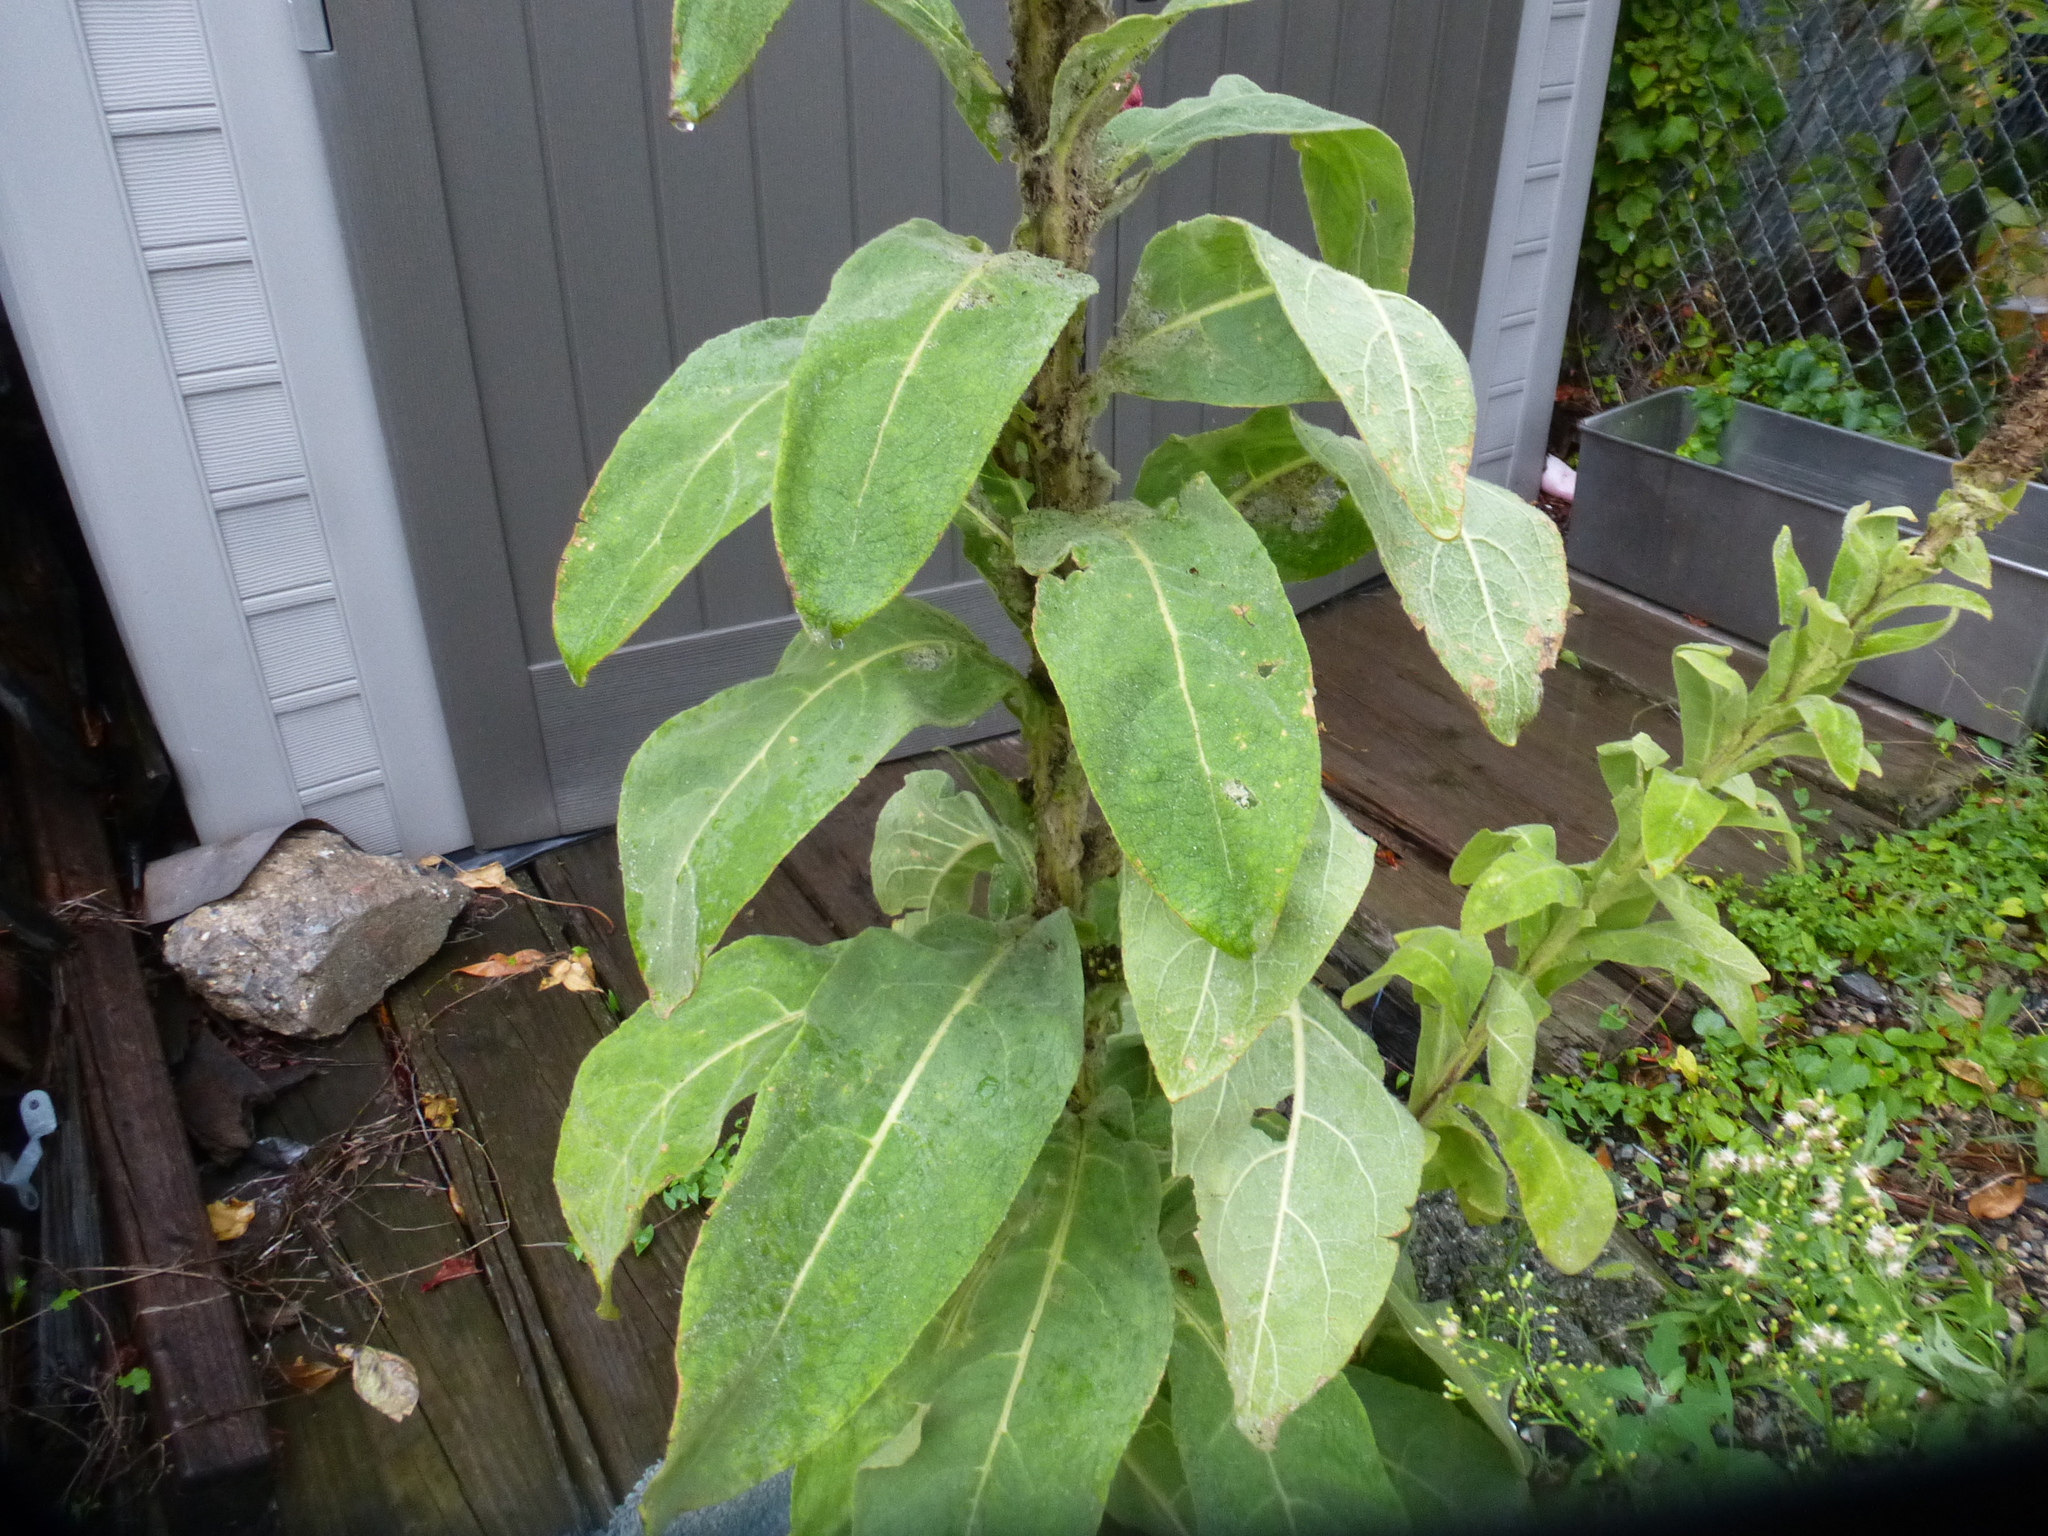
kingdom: Plantae
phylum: Tracheophyta
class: Magnoliopsida
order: Lamiales
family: Scrophulariaceae
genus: Verbascum
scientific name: Verbascum thapsus
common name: Common mullein
